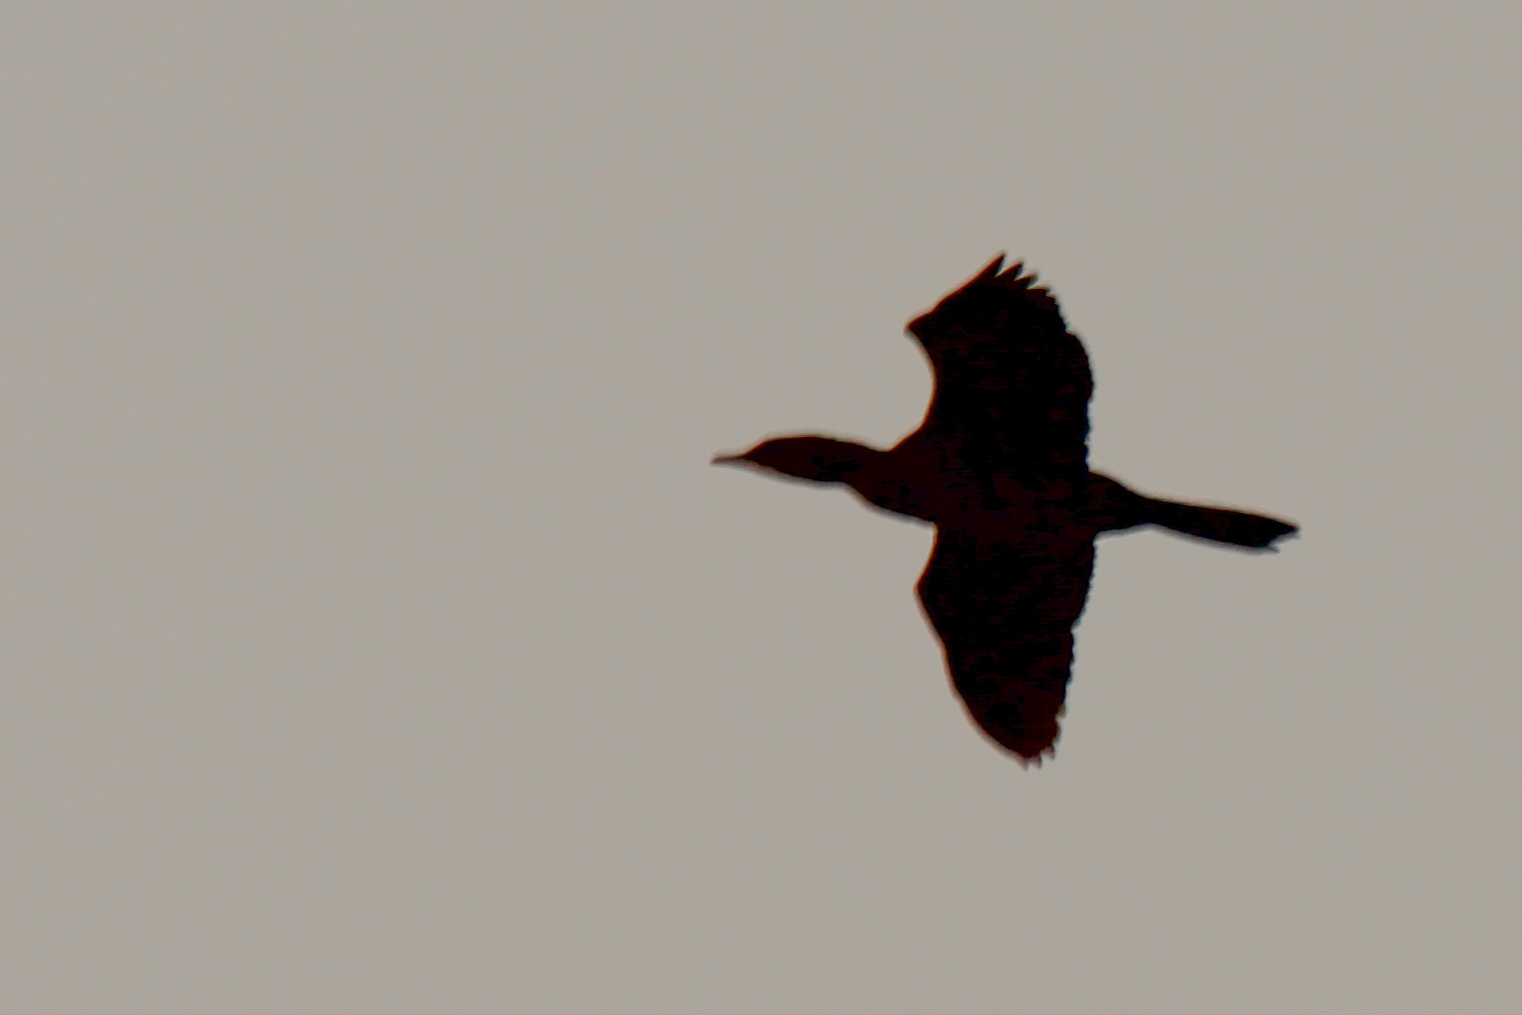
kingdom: Animalia
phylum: Chordata
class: Aves
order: Suliformes
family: Phalacrocoracidae
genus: Microcarbo
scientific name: Microcarbo pygmaeus
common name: Pygmy cormorant
